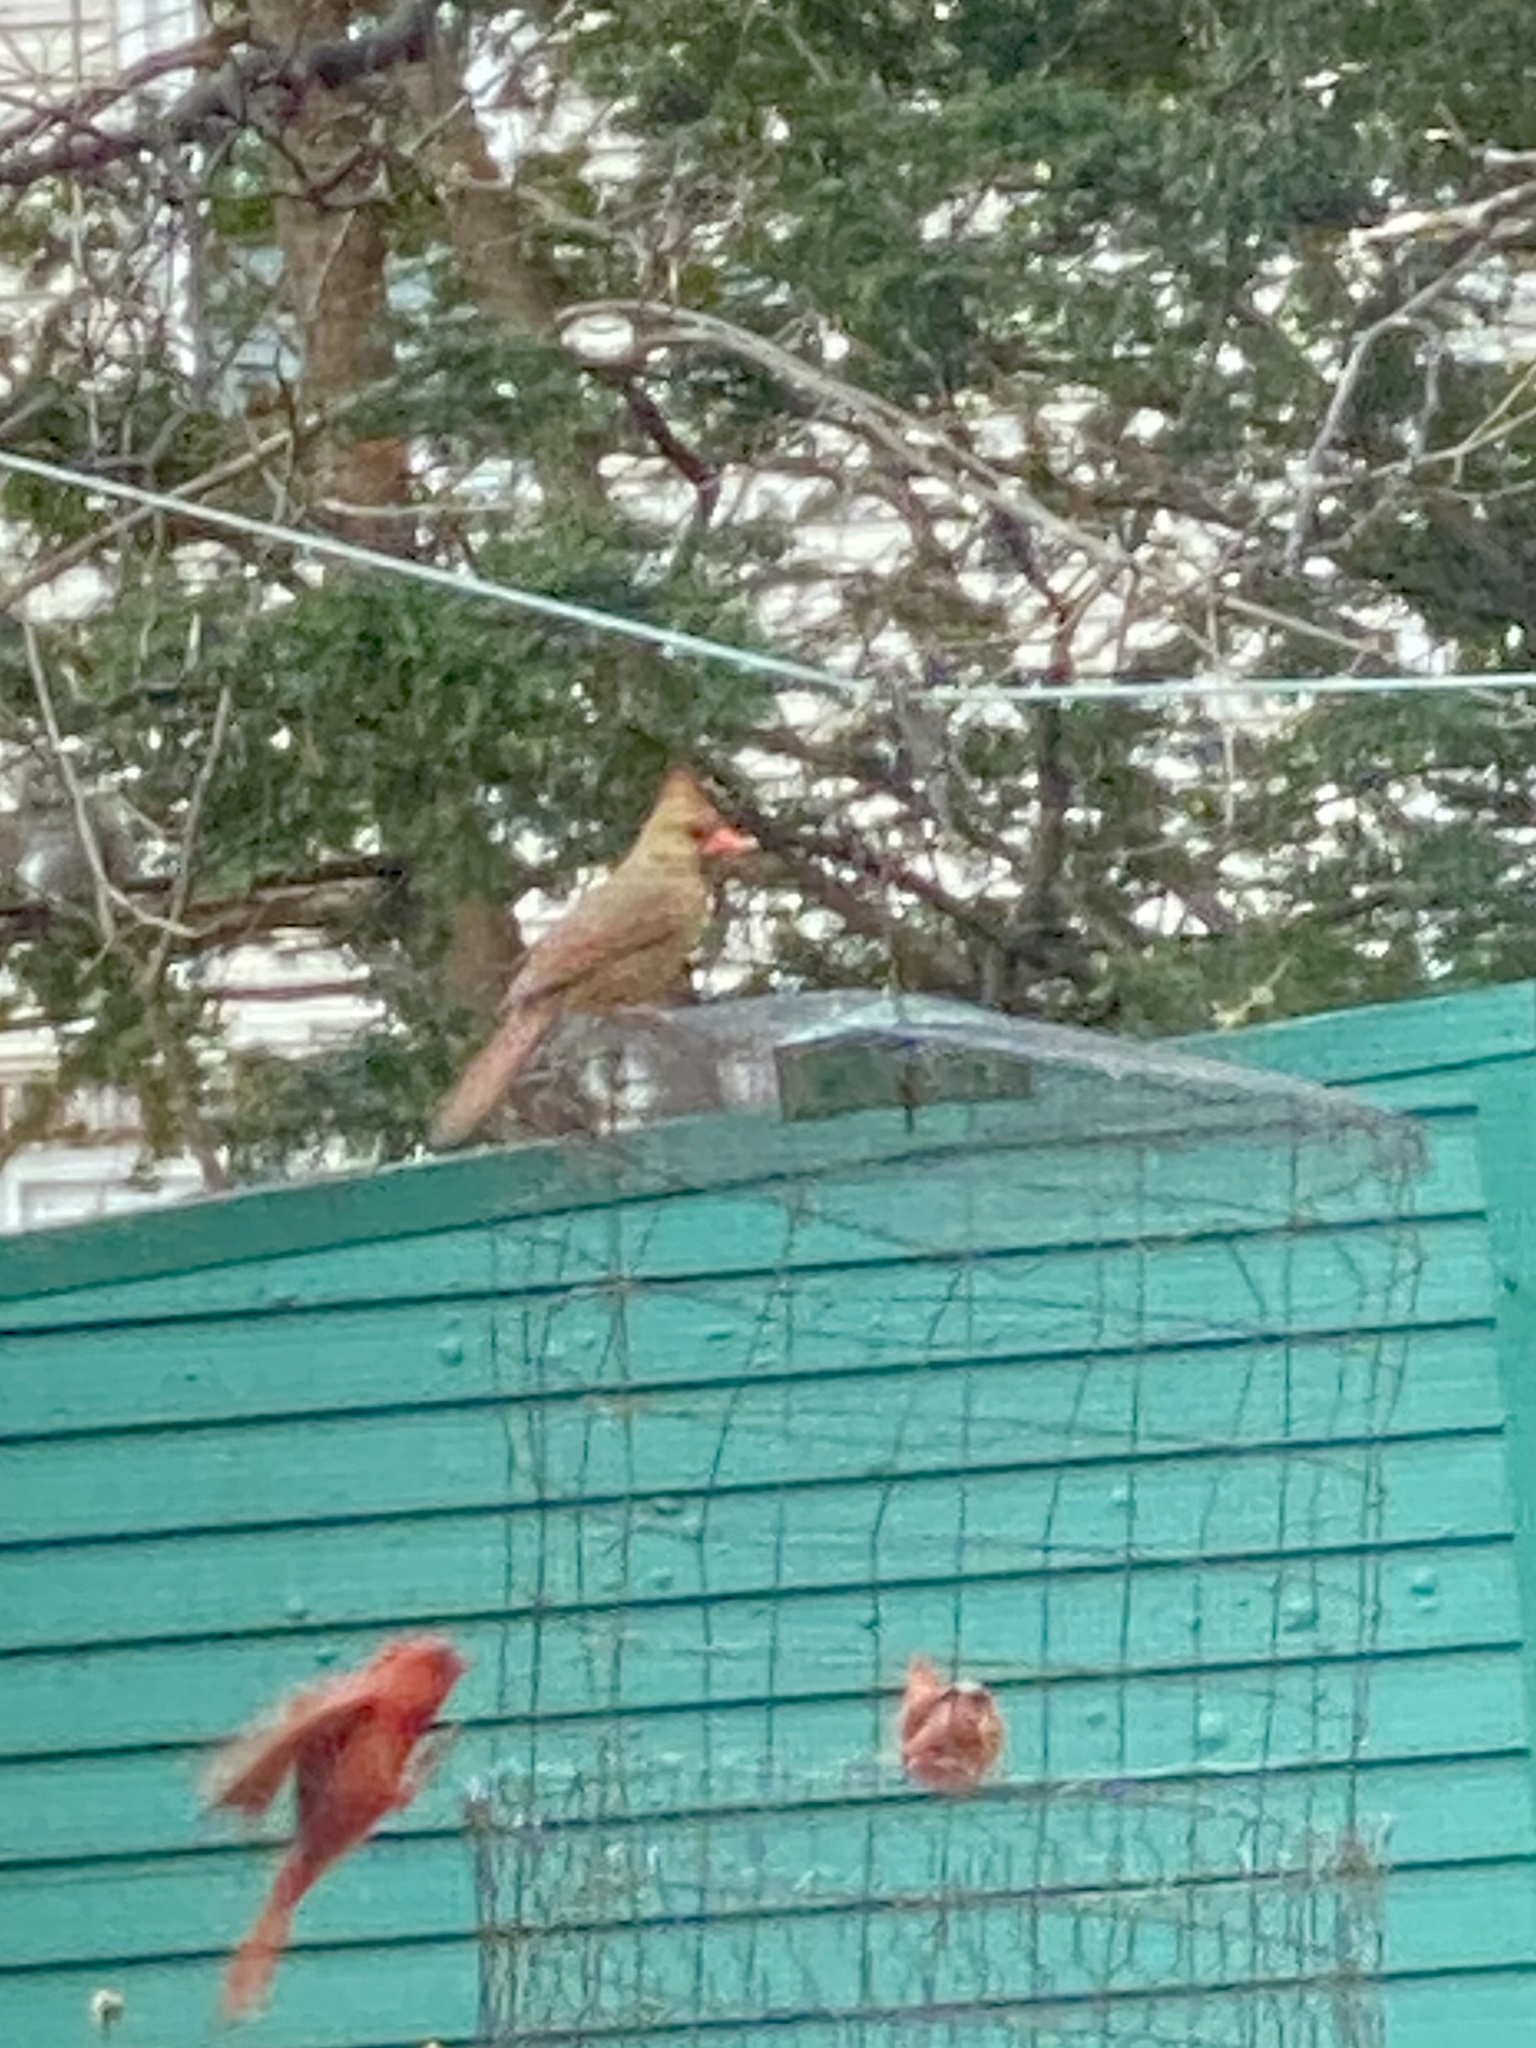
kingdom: Animalia
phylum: Chordata
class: Aves
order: Passeriformes
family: Cardinalidae
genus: Cardinalis
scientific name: Cardinalis cardinalis
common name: Northern cardinal
